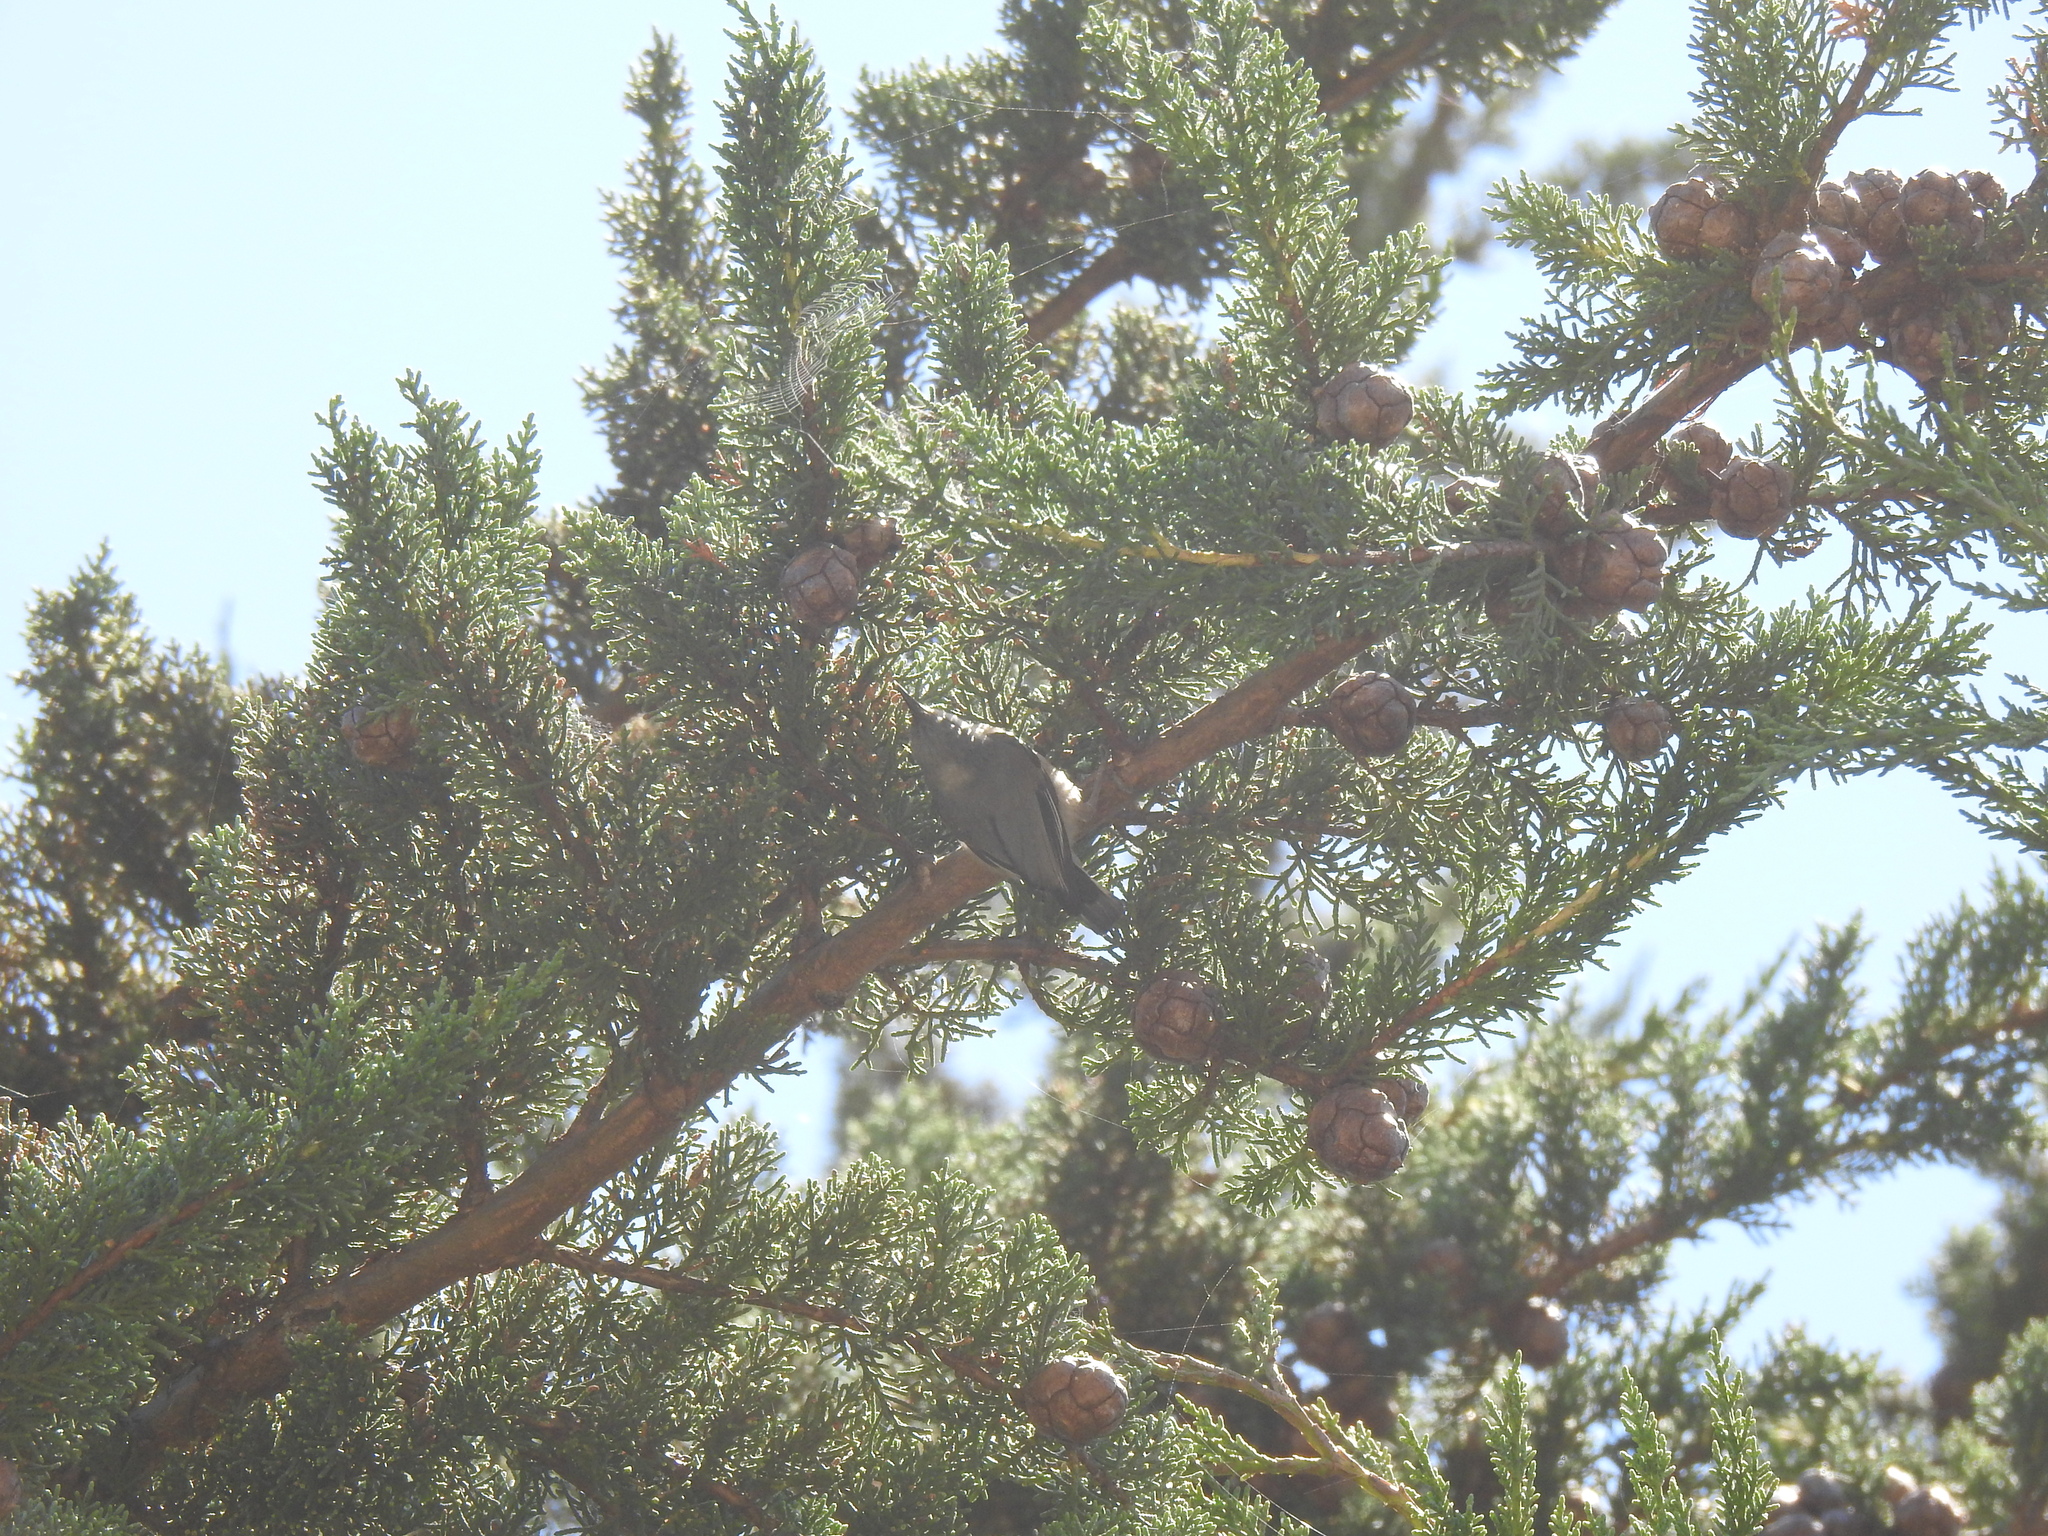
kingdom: Animalia
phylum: Chordata
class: Aves
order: Passeriformes
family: Sittidae
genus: Sitta
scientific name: Sitta pygmaea
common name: Pygmy nuthatch
